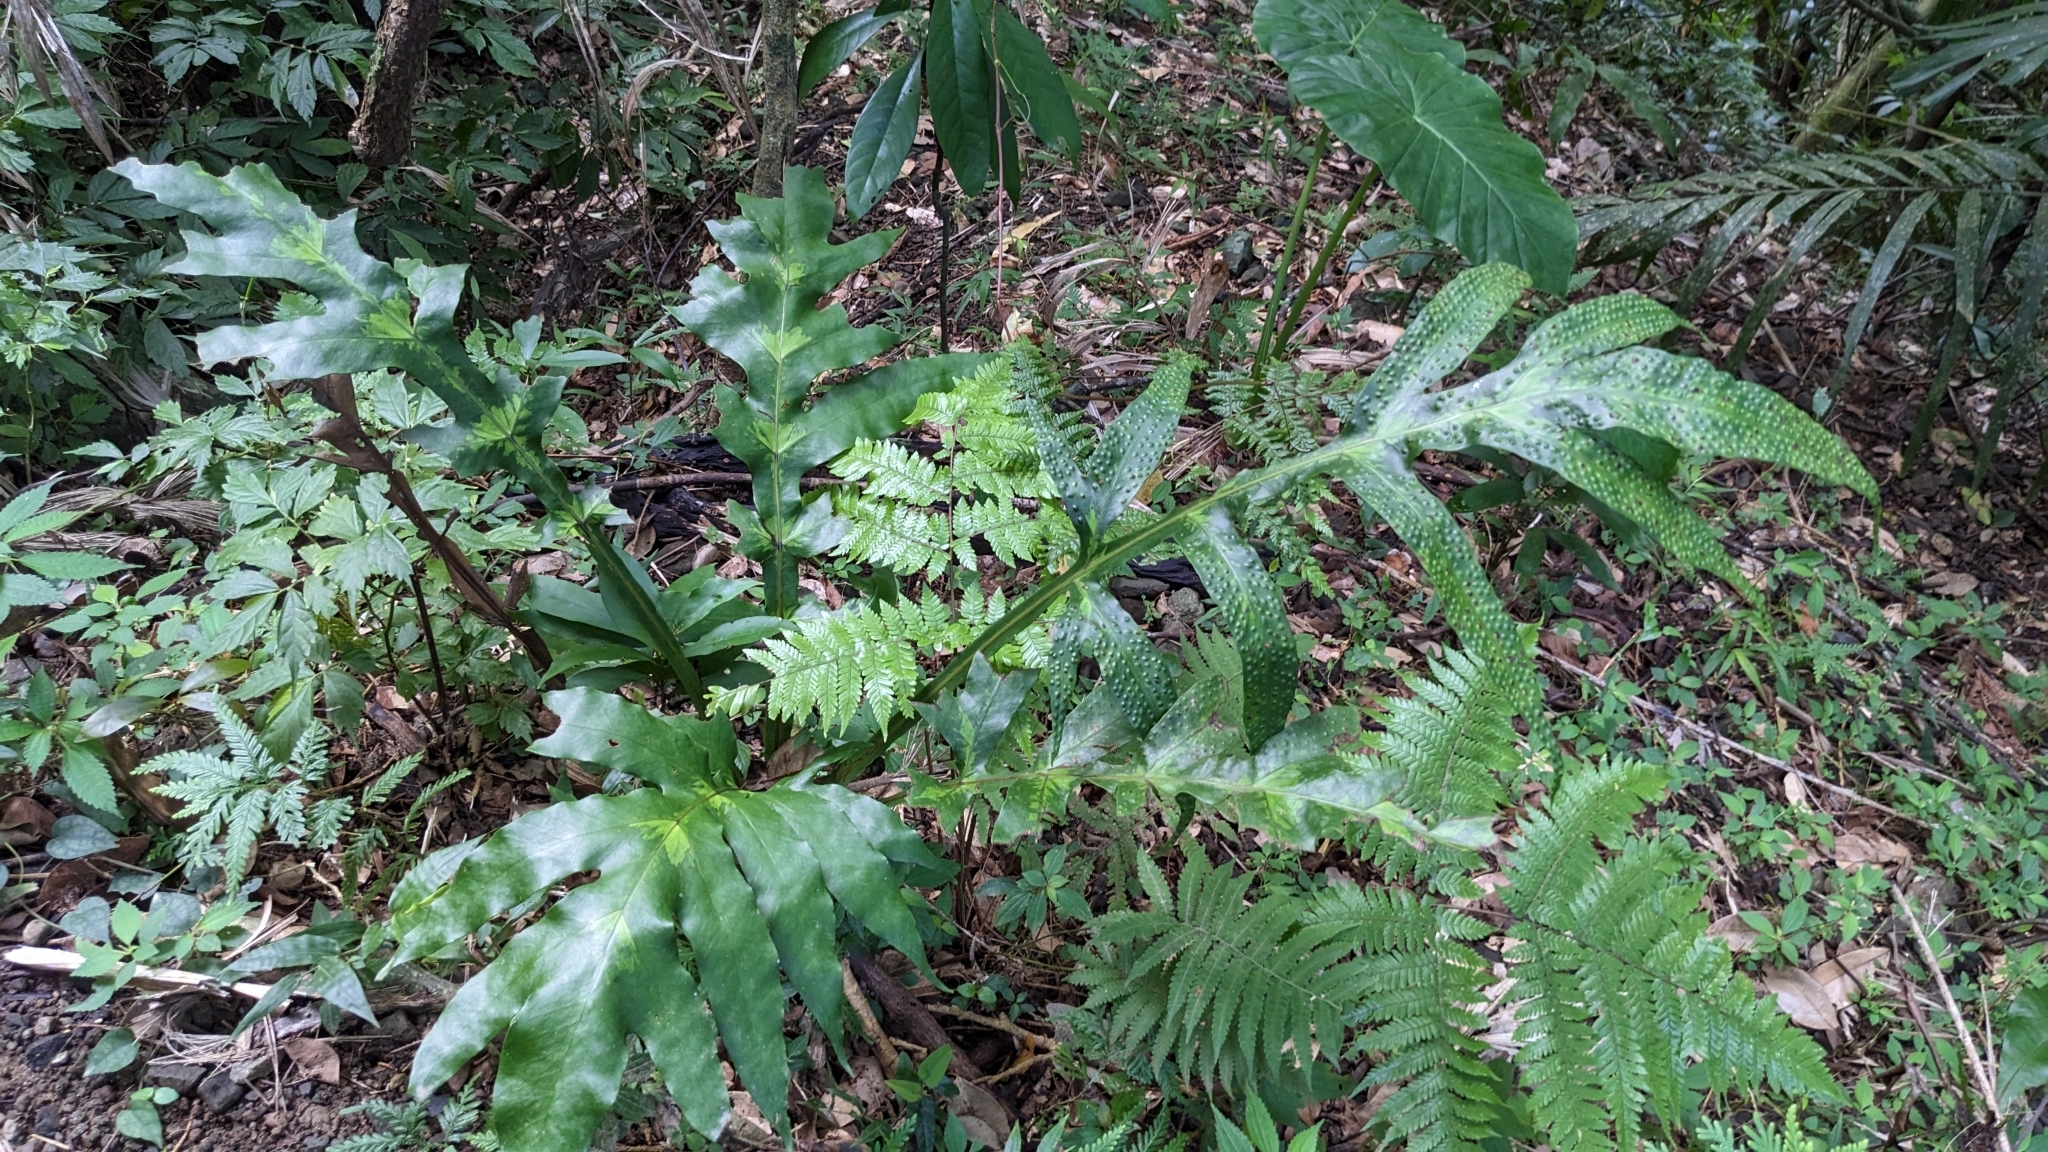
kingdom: Plantae
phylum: Tracheophyta
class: Polypodiopsida
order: Polypodiales
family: Tectariaceae
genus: Tectaria
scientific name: Tectaria decurrens
